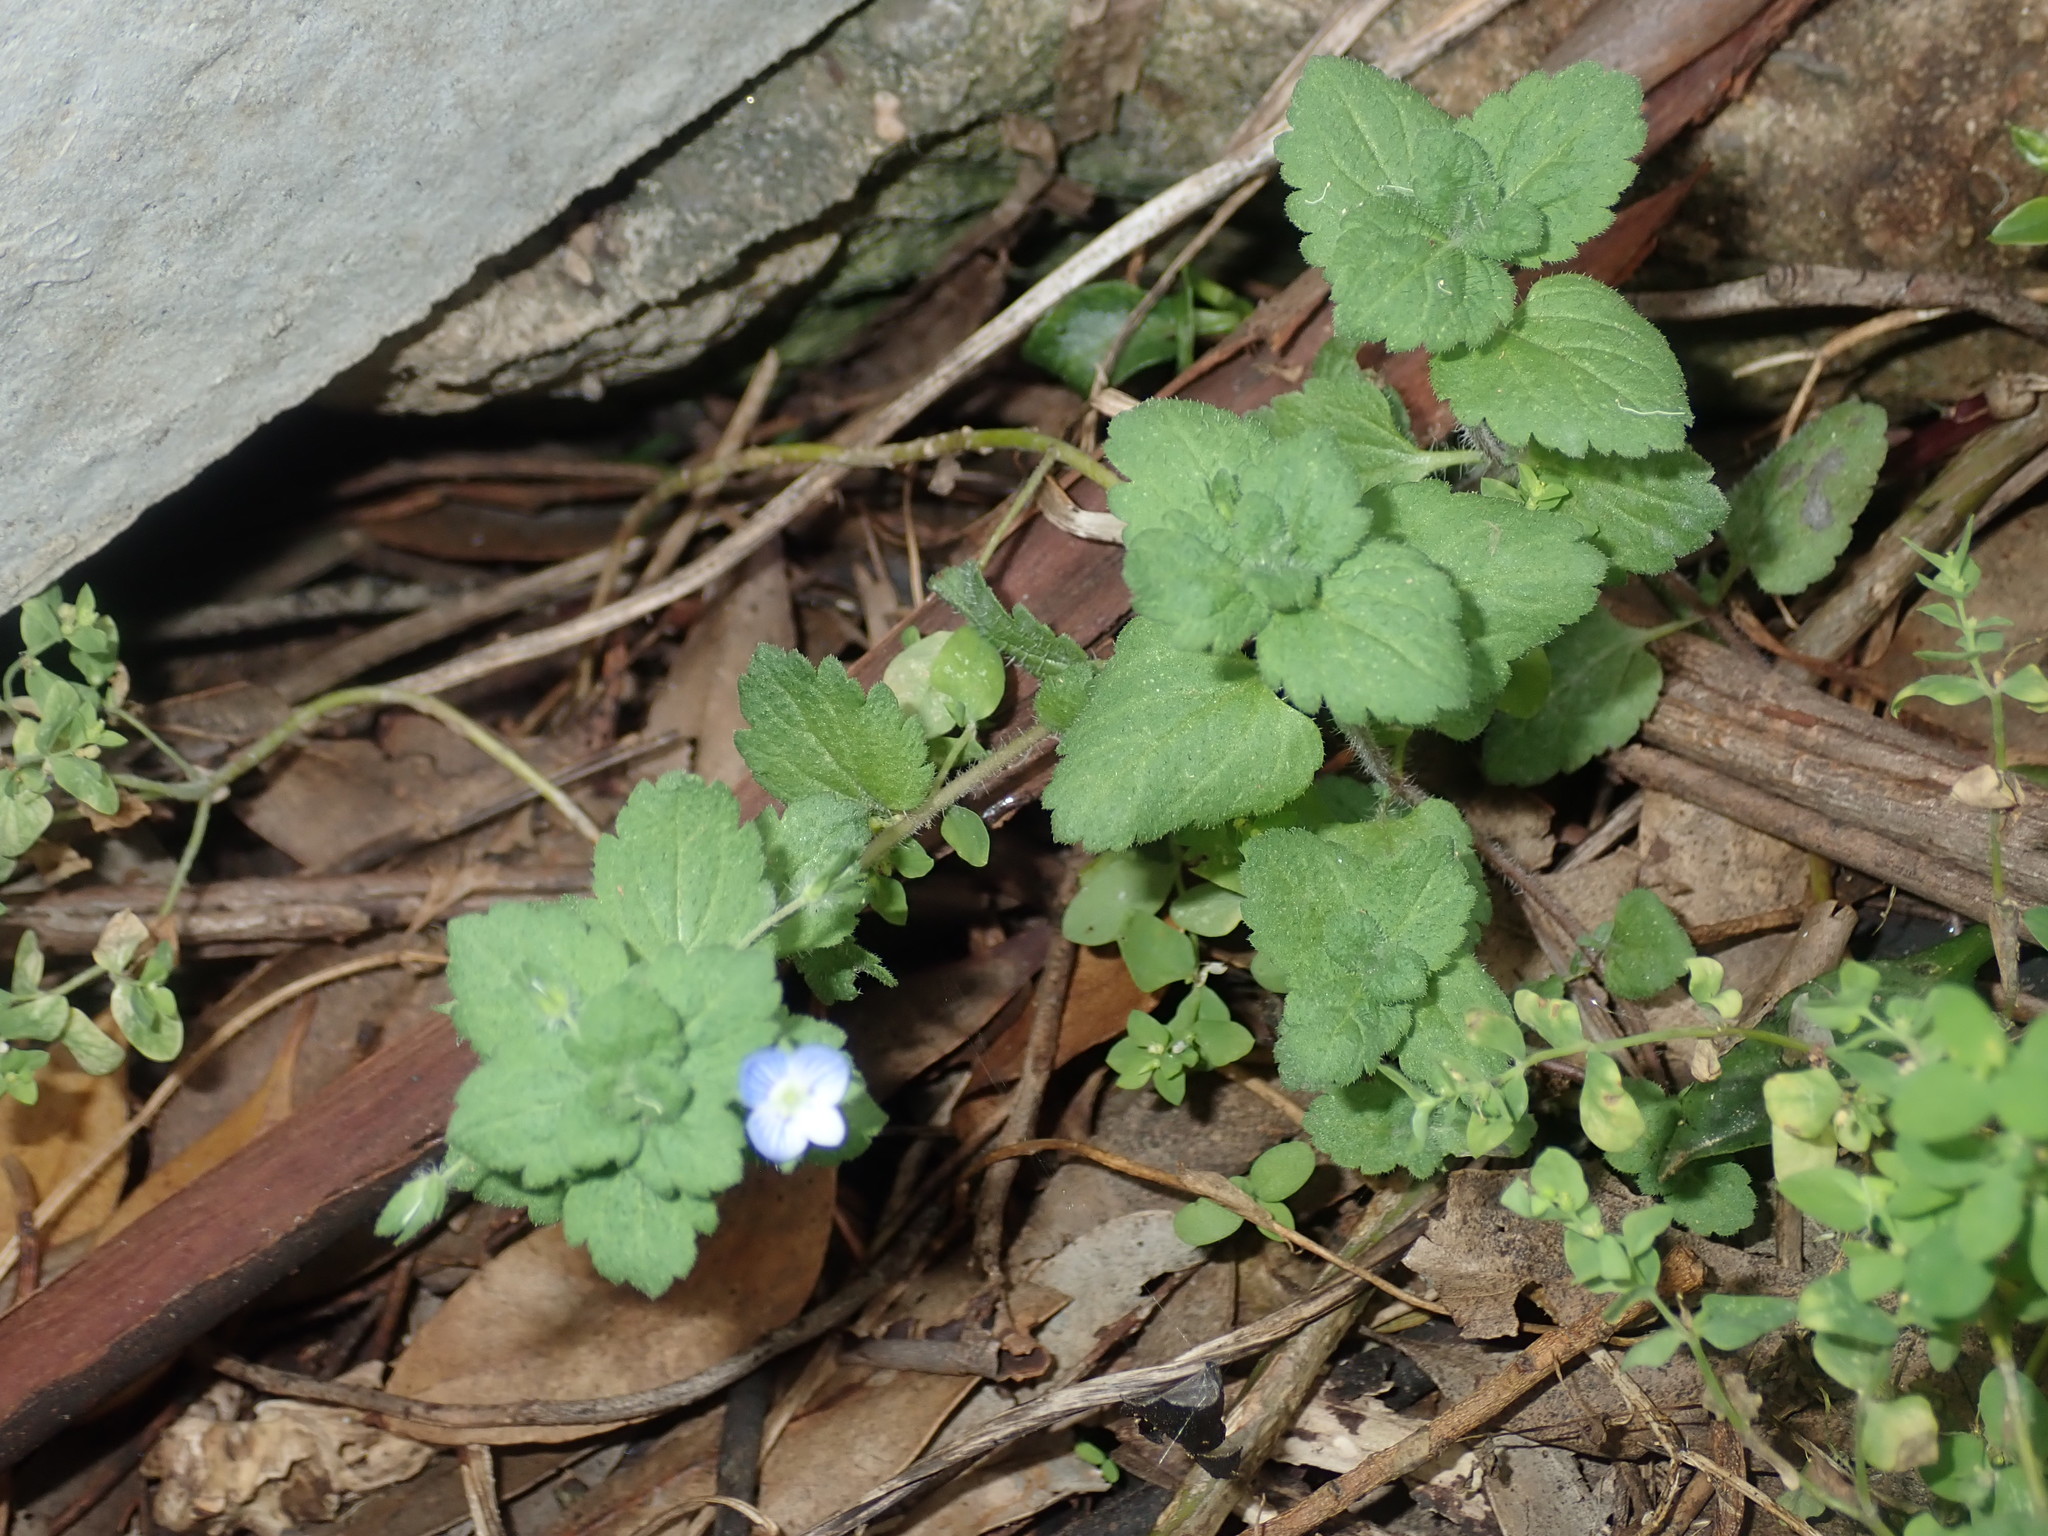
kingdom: Plantae
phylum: Tracheophyta
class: Magnoliopsida
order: Lamiales
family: Plantaginaceae
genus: Veronica
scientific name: Veronica persica
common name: Common field-speedwell
